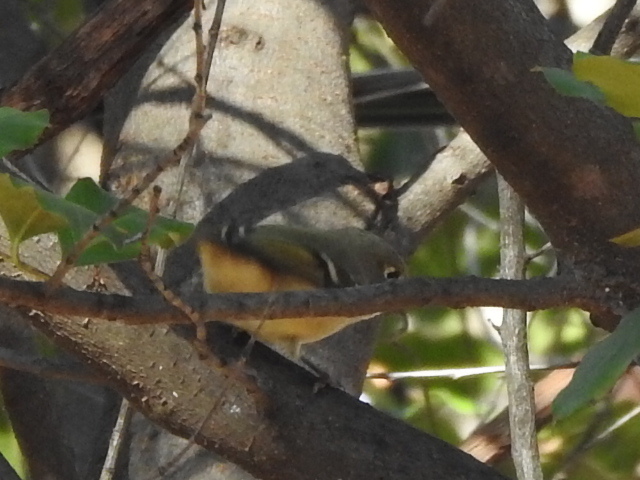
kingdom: Animalia
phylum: Chordata
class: Aves
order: Passeriformes
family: Regulidae
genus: Regulus
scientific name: Regulus calendula
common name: Ruby-crowned kinglet
